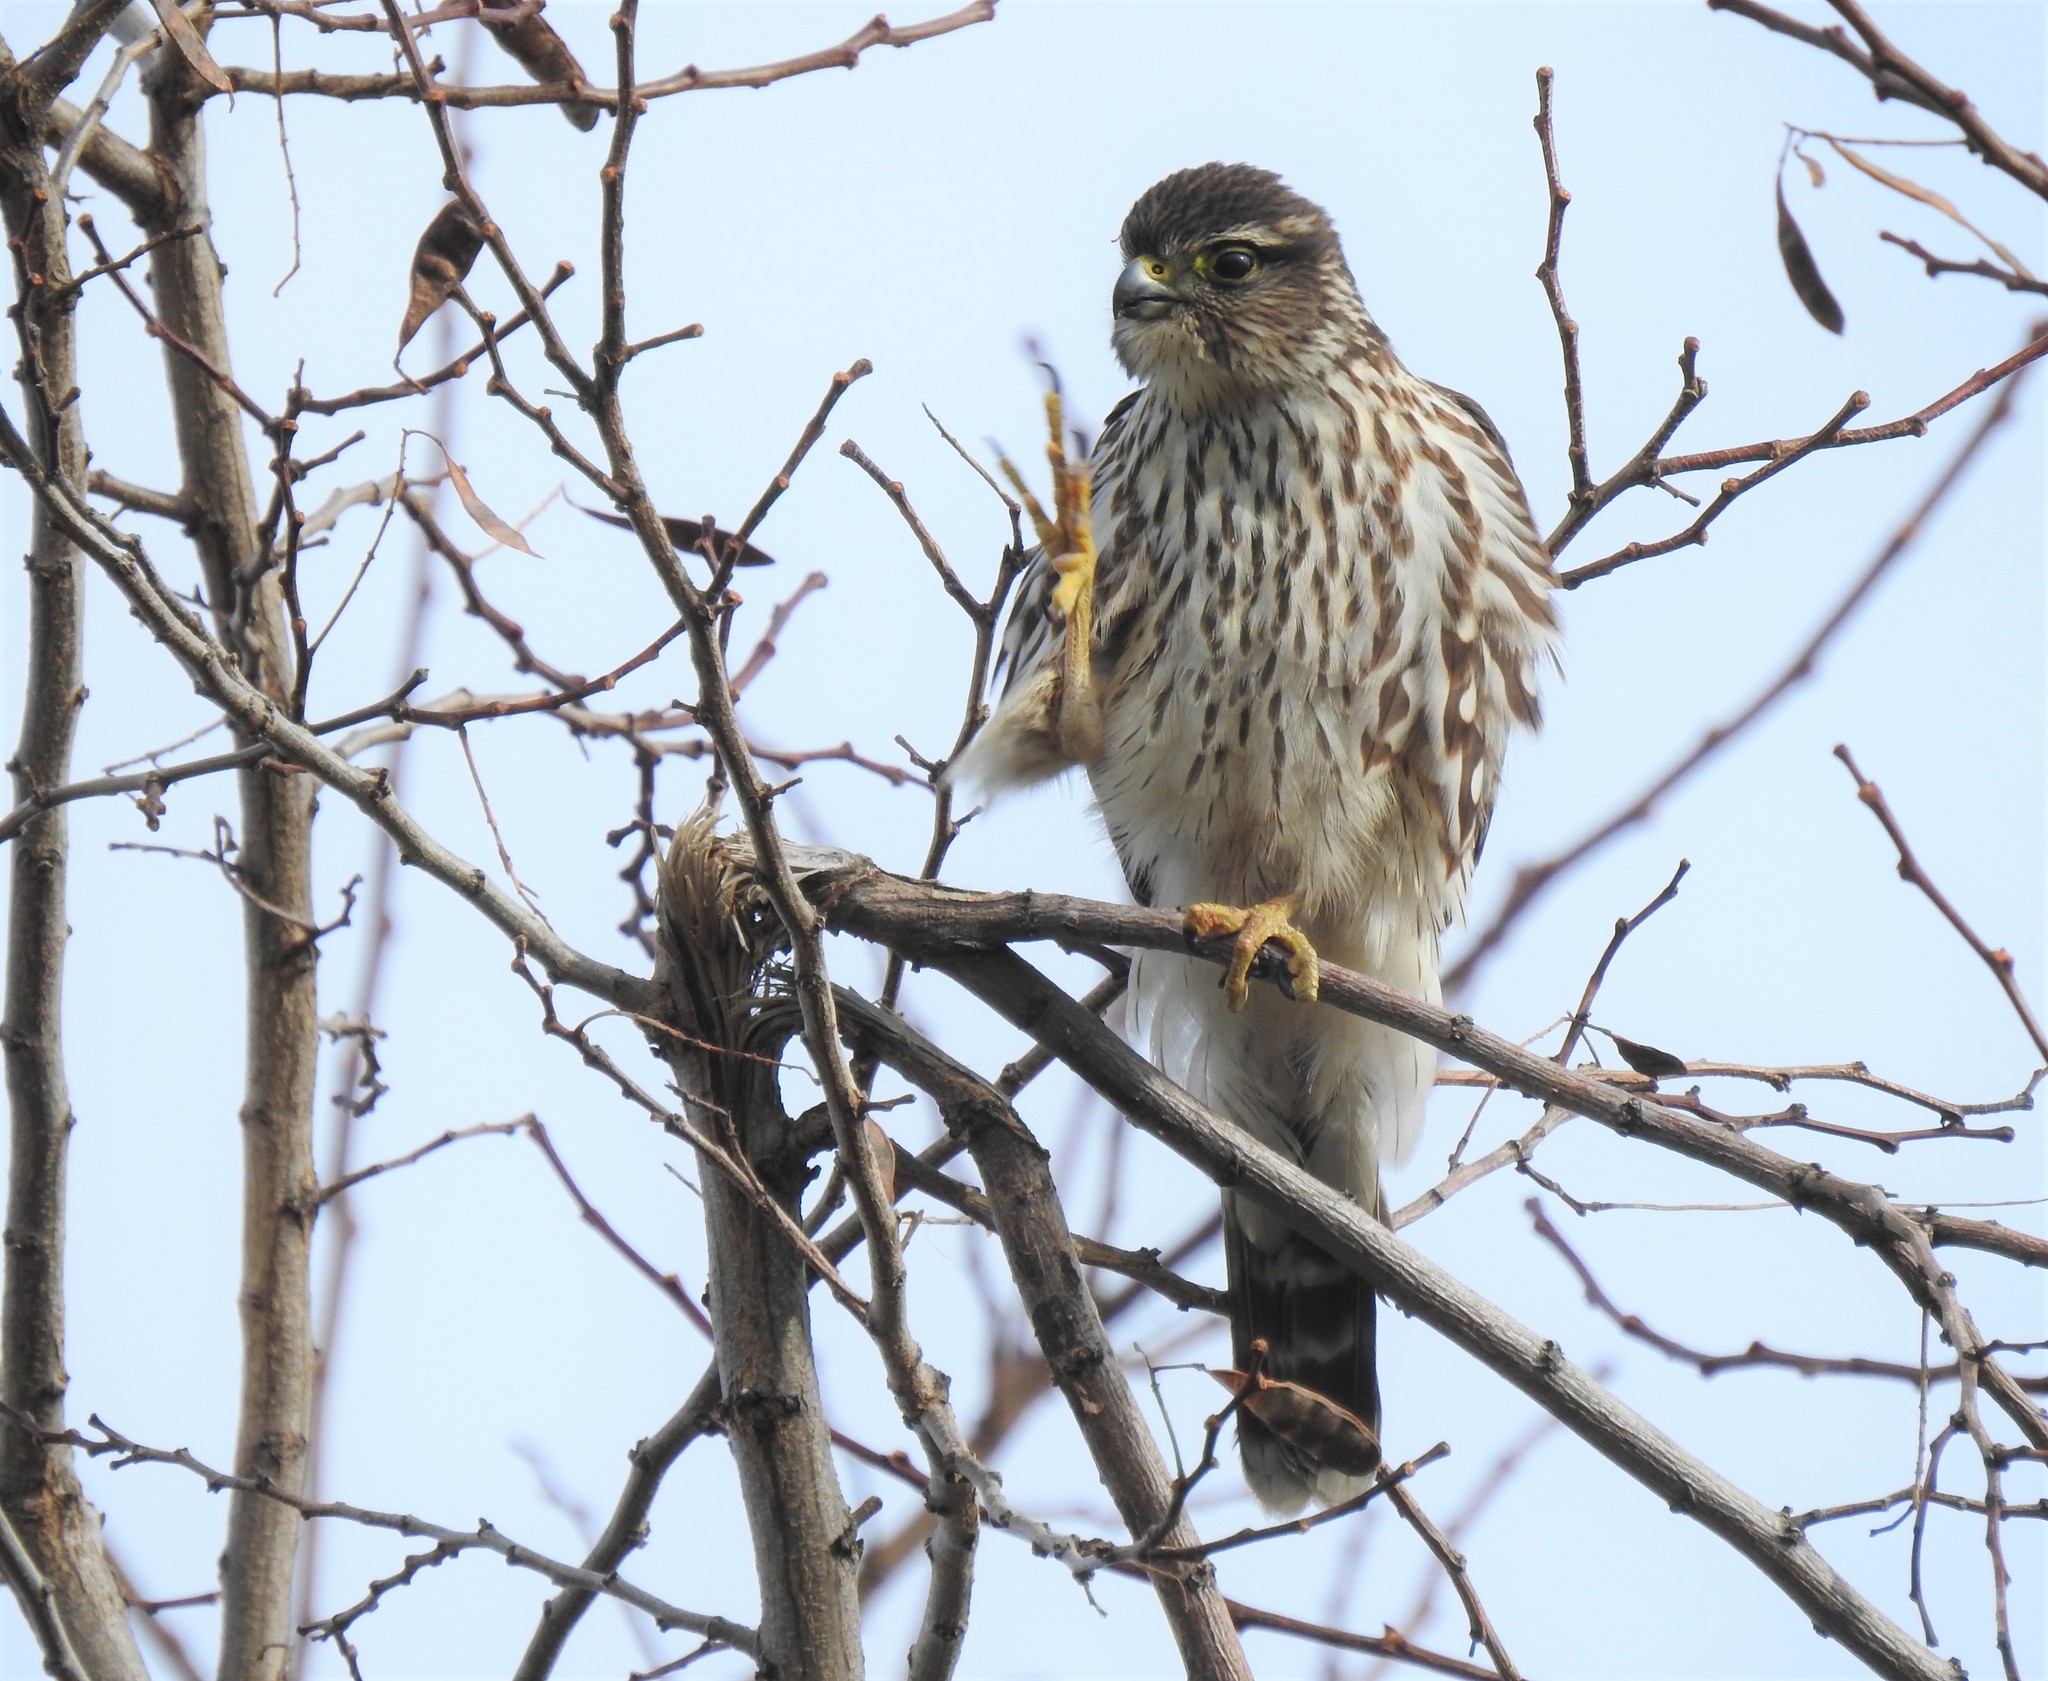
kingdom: Animalia
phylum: Chordata
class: Aves
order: Falconiformes
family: Falconidae
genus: Falco
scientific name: Falco columbarius
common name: Merlin
